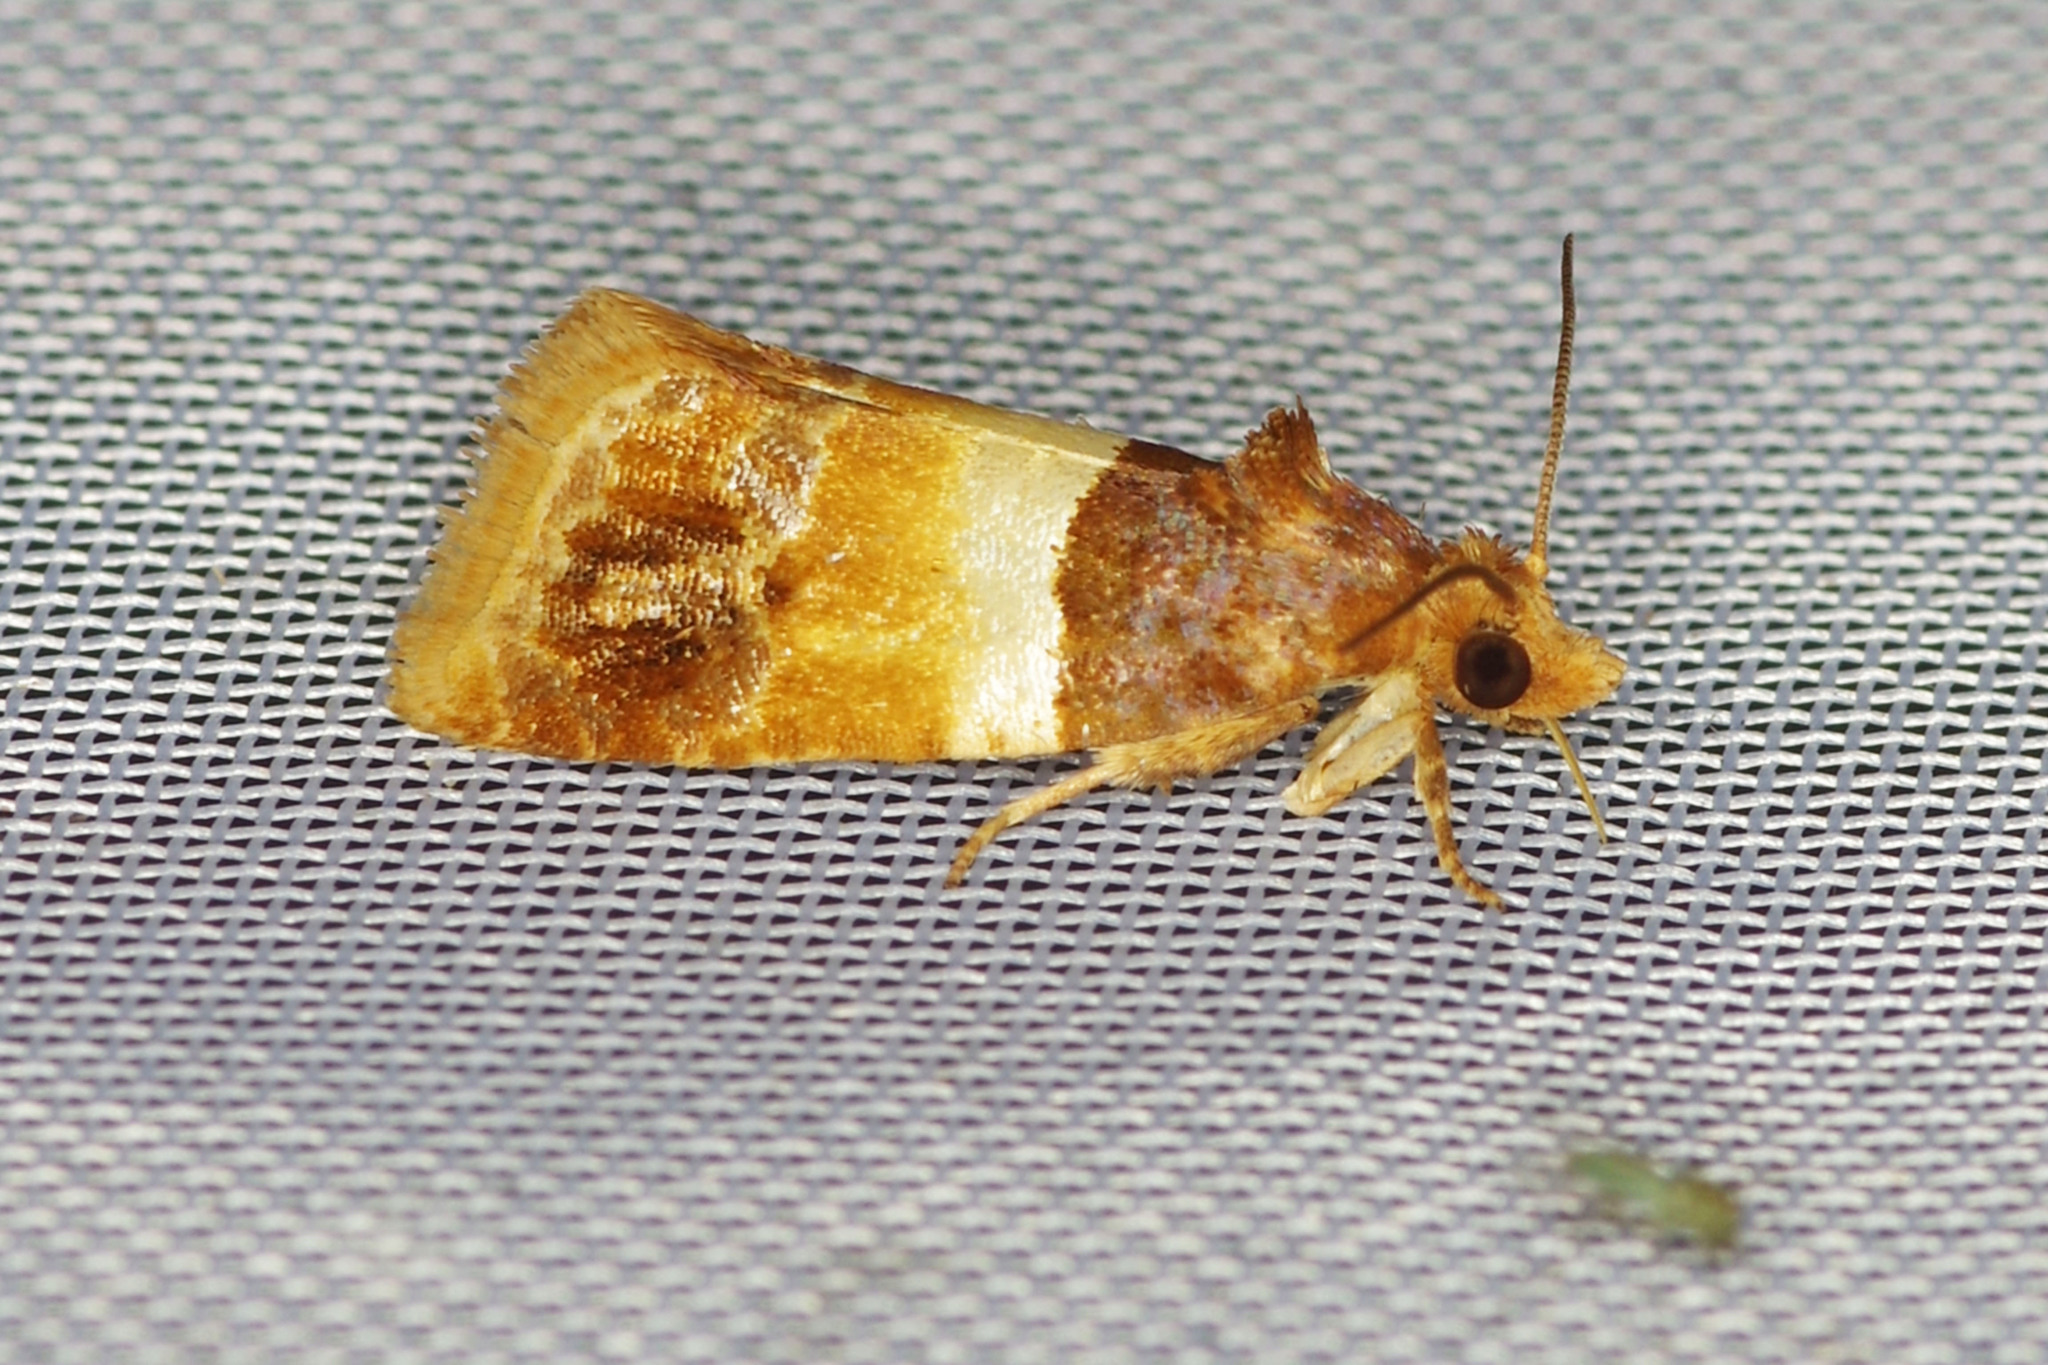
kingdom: Animalia
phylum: Arthropoda
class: Insecta
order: Lepidoptera
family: Tortricidae
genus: Epinotia
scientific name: Epinotia festivana
